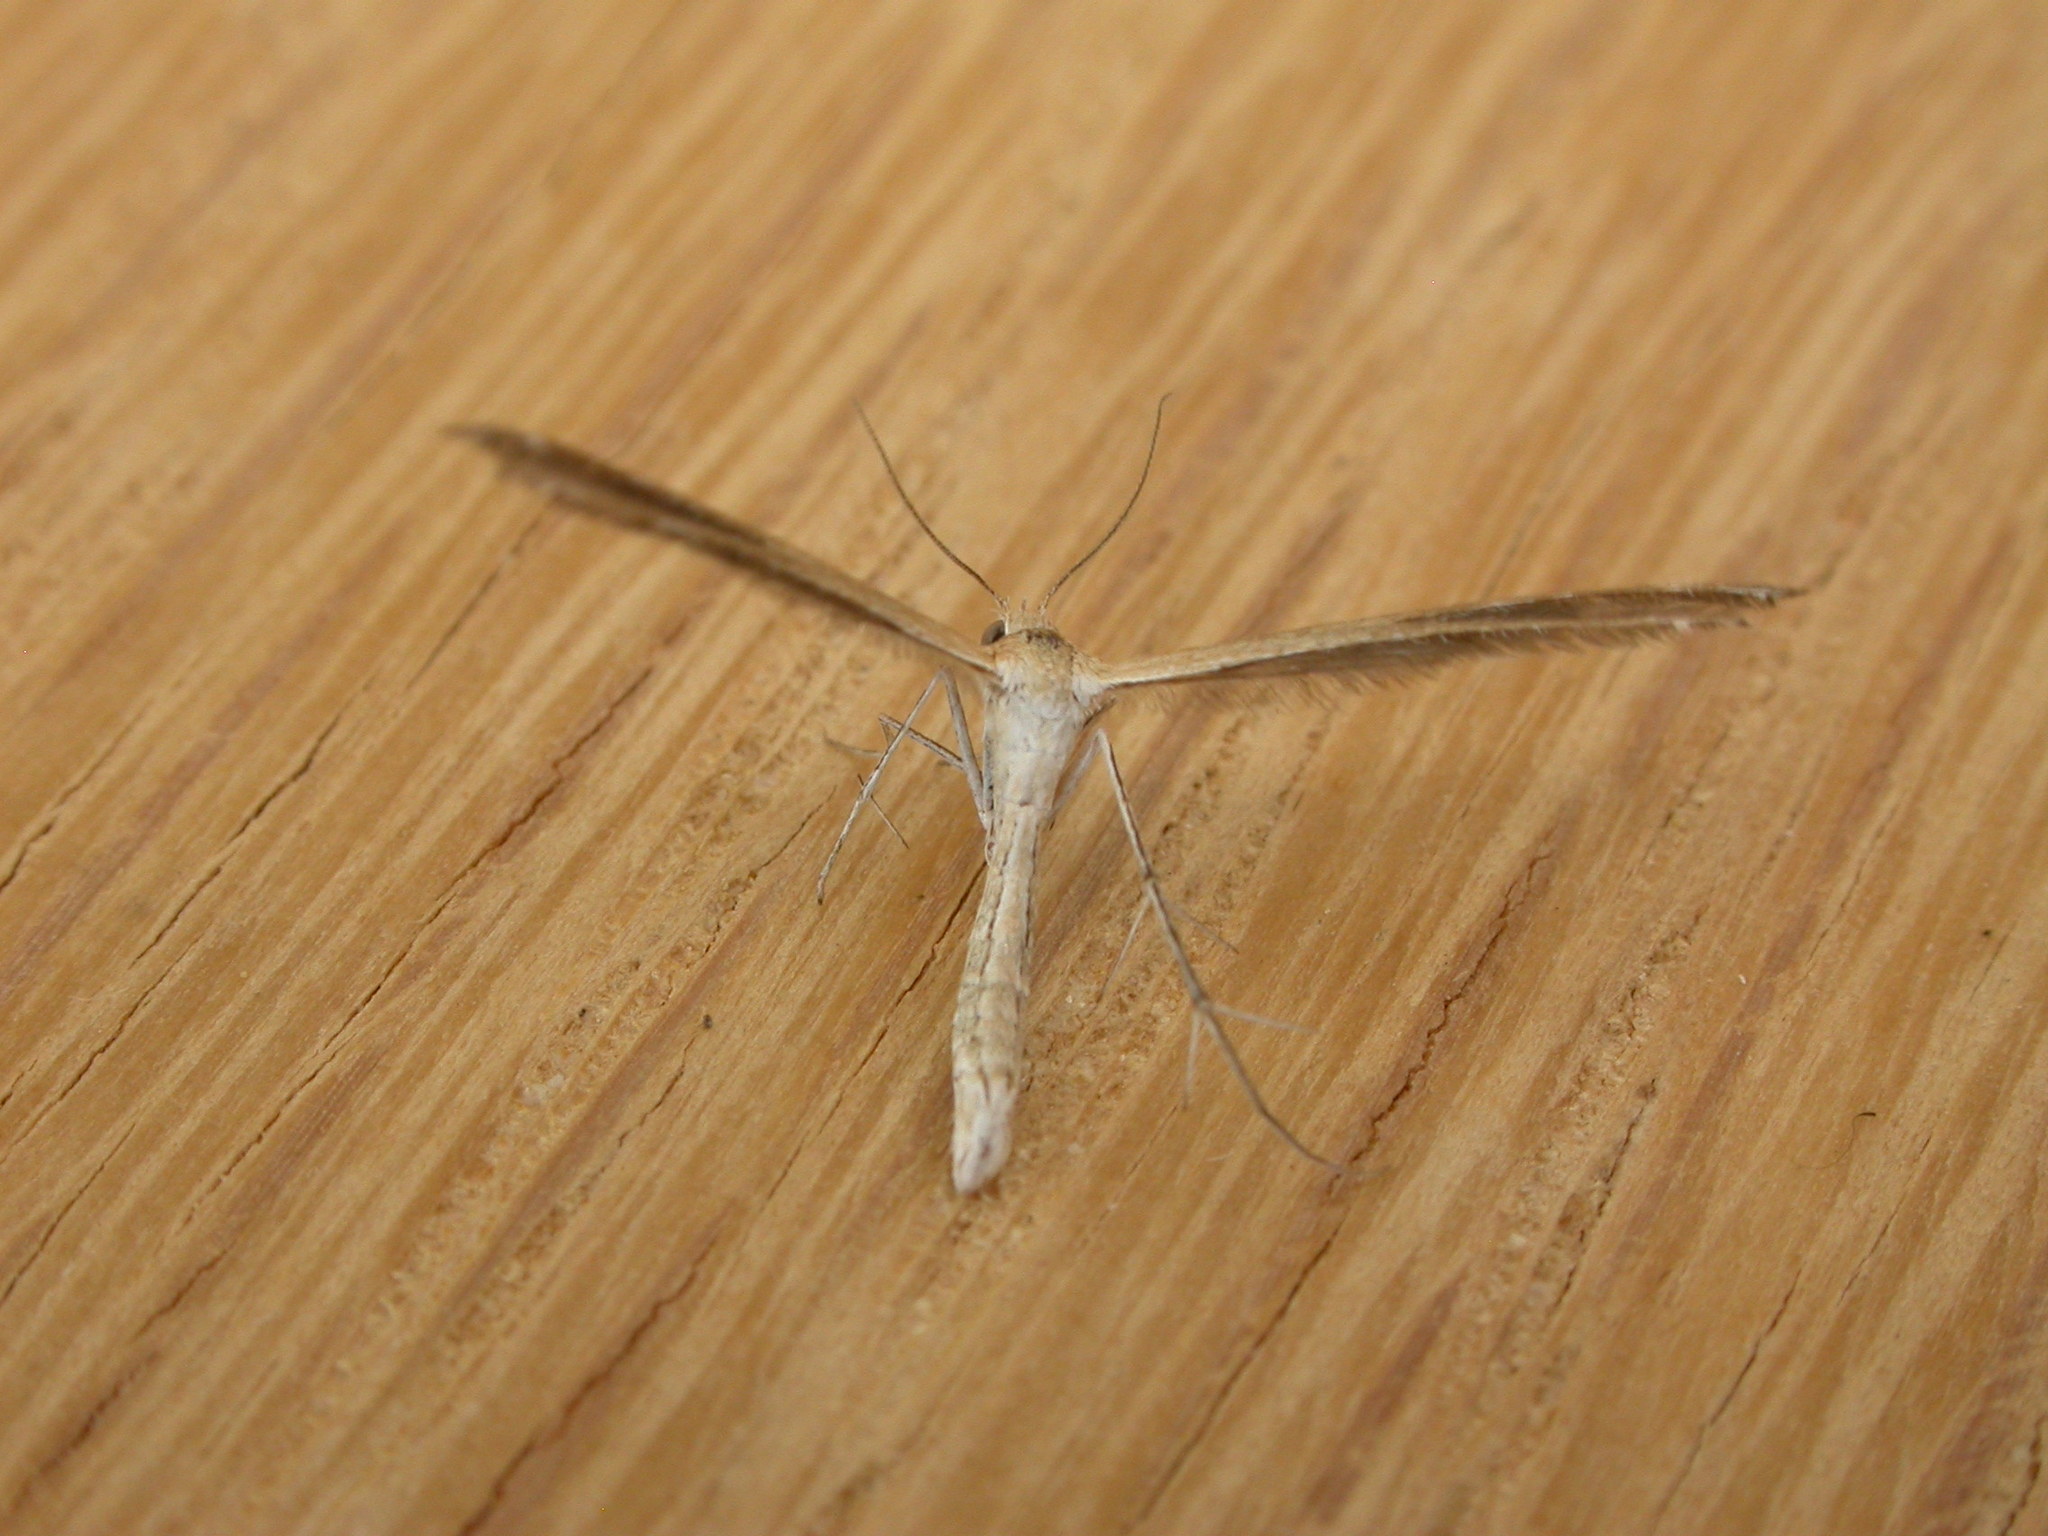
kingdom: Animalia
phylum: Arthropoda
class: Insecta
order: Lepidoptera
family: Pterophoridae
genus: Stangeia
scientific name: Stangeia xerodes
